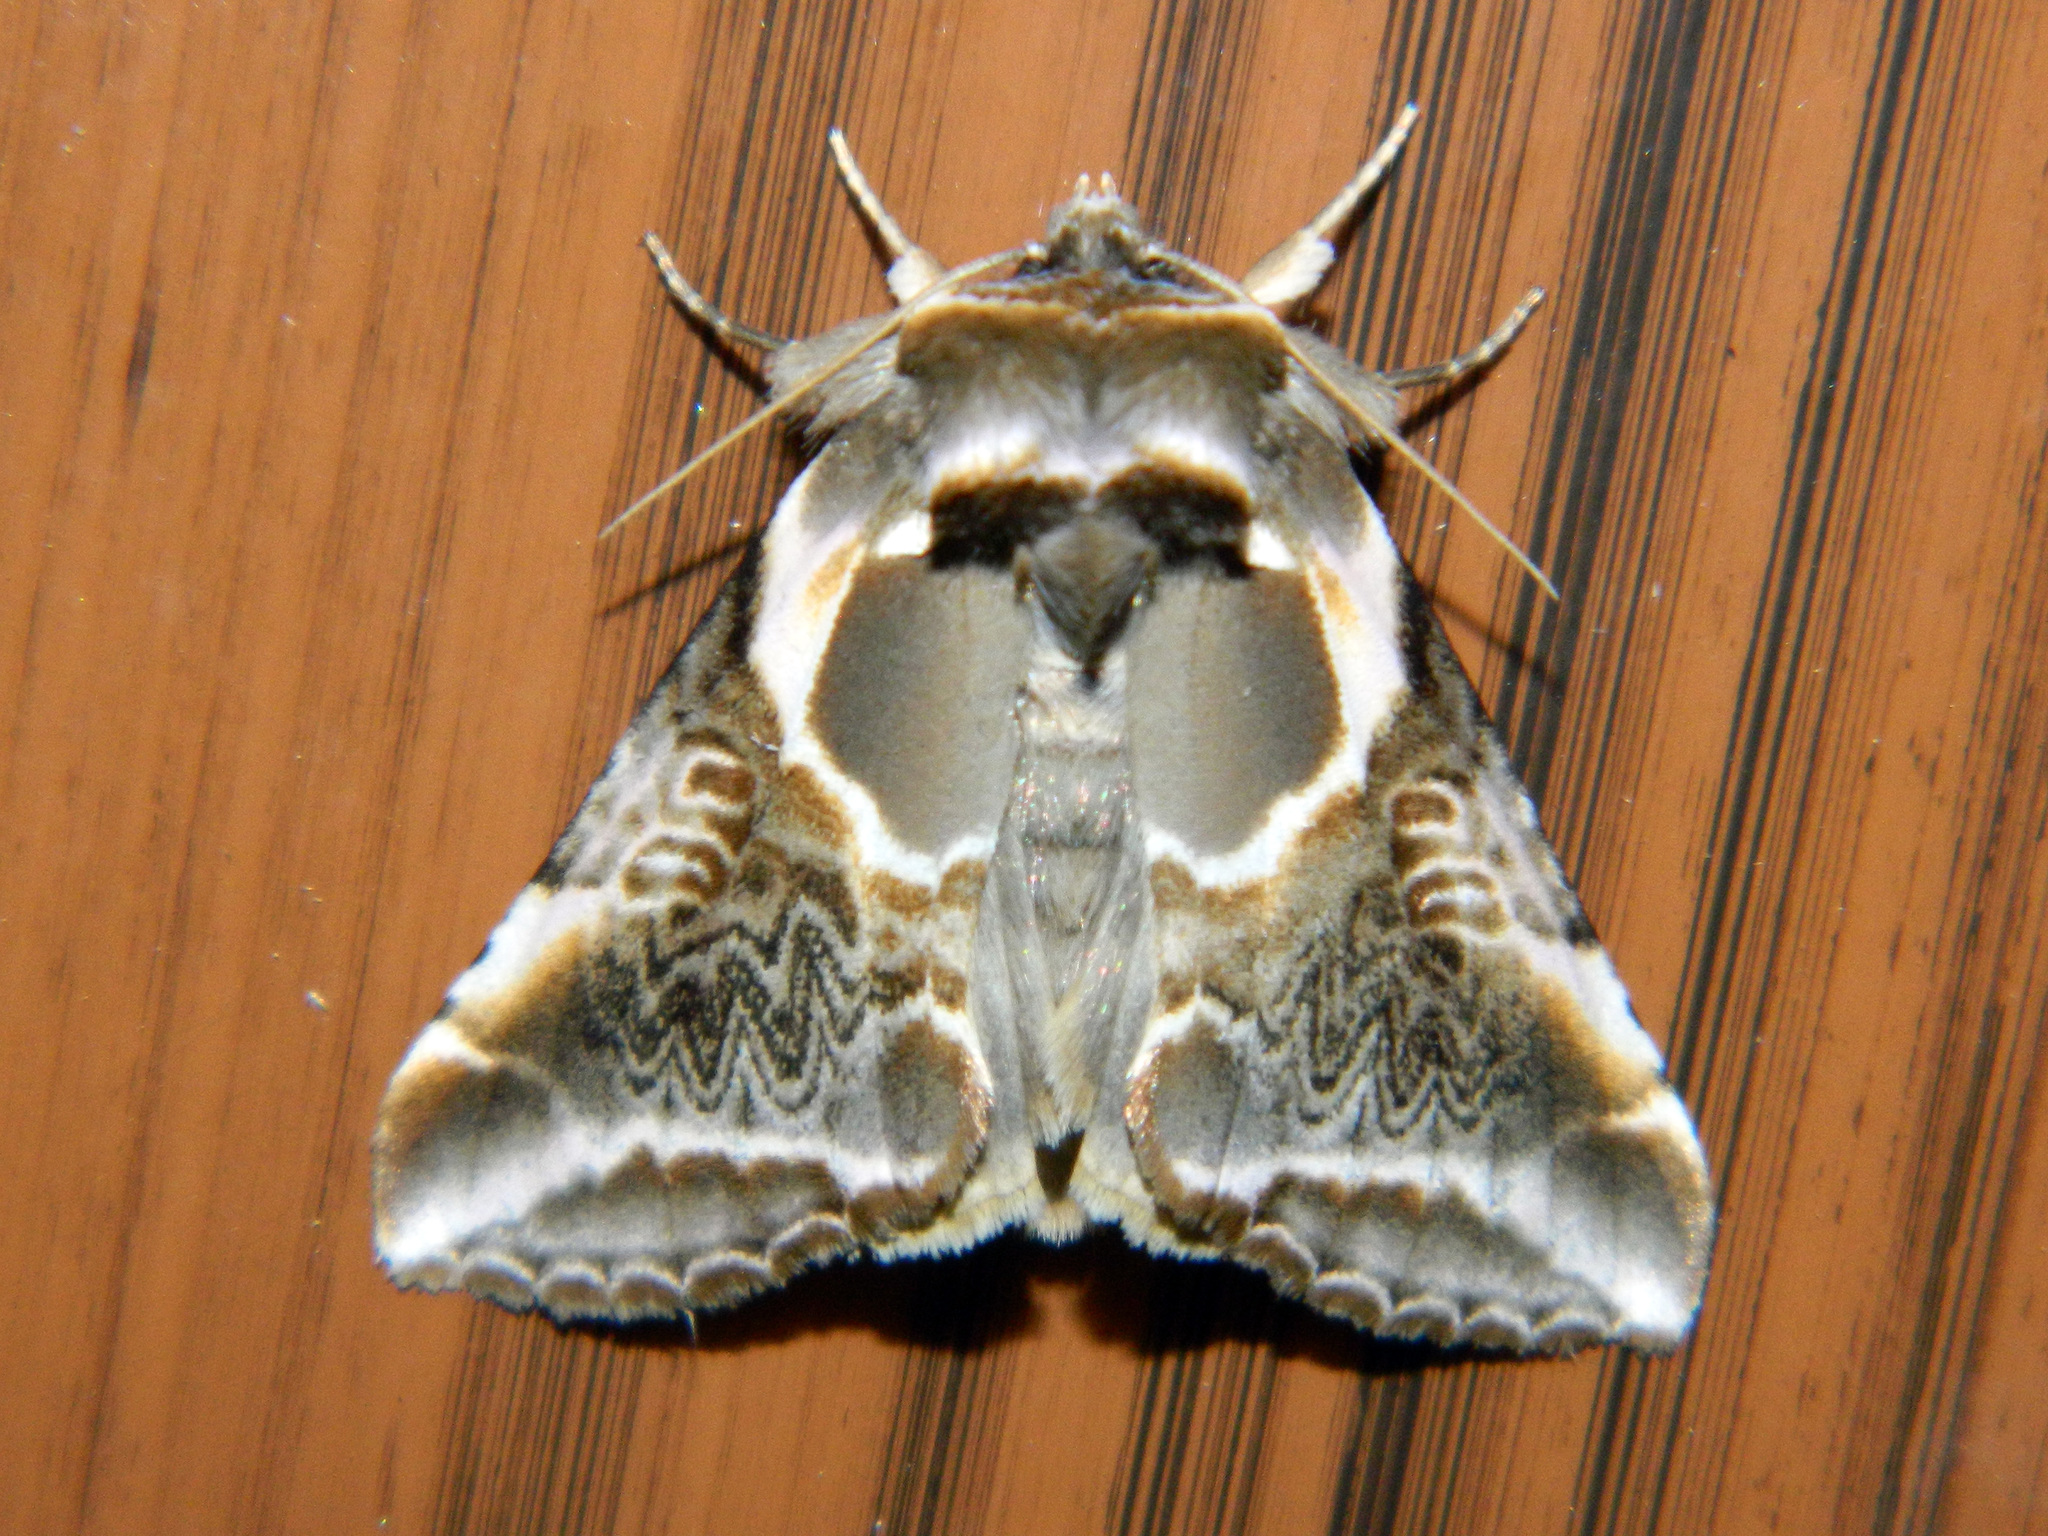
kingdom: Animalia
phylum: Arthropoda
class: Insecta
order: Lepidoptera
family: Drepanidae
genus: Habrosyne
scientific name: Habrosyne scripta
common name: Lettered habrosyne moth
